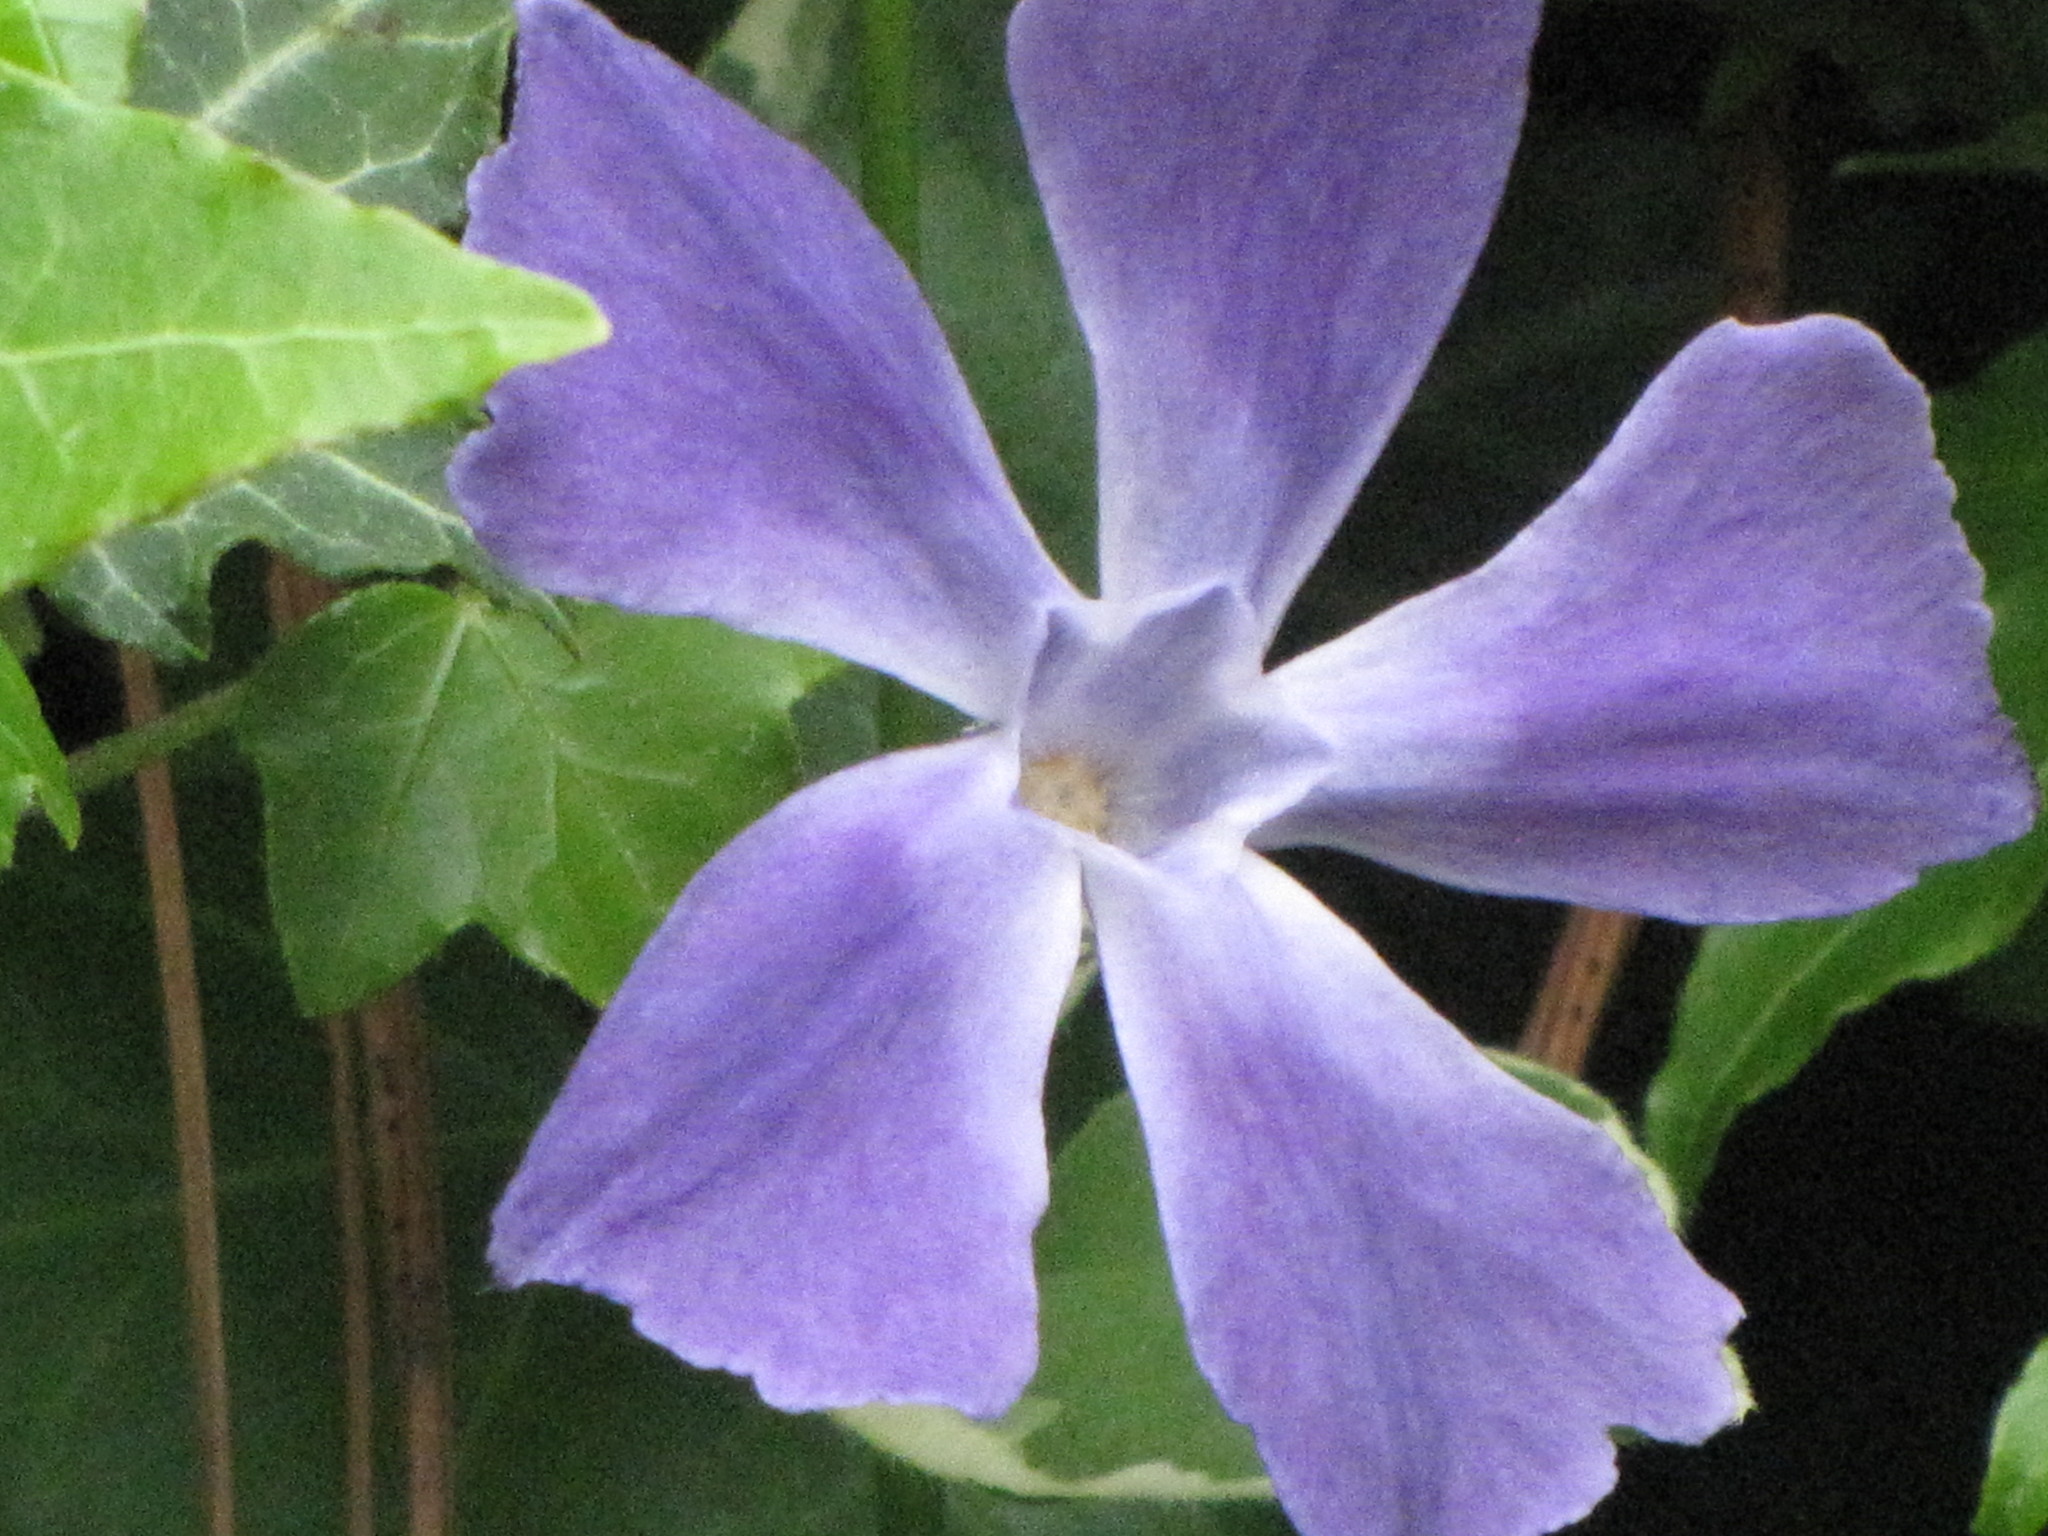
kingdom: Plantae
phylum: Tracheophyta
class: Magnoliopsida
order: Gentianales
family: Apocynaceae
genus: Vinca
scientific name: Vinca major
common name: Greater periwinkle
